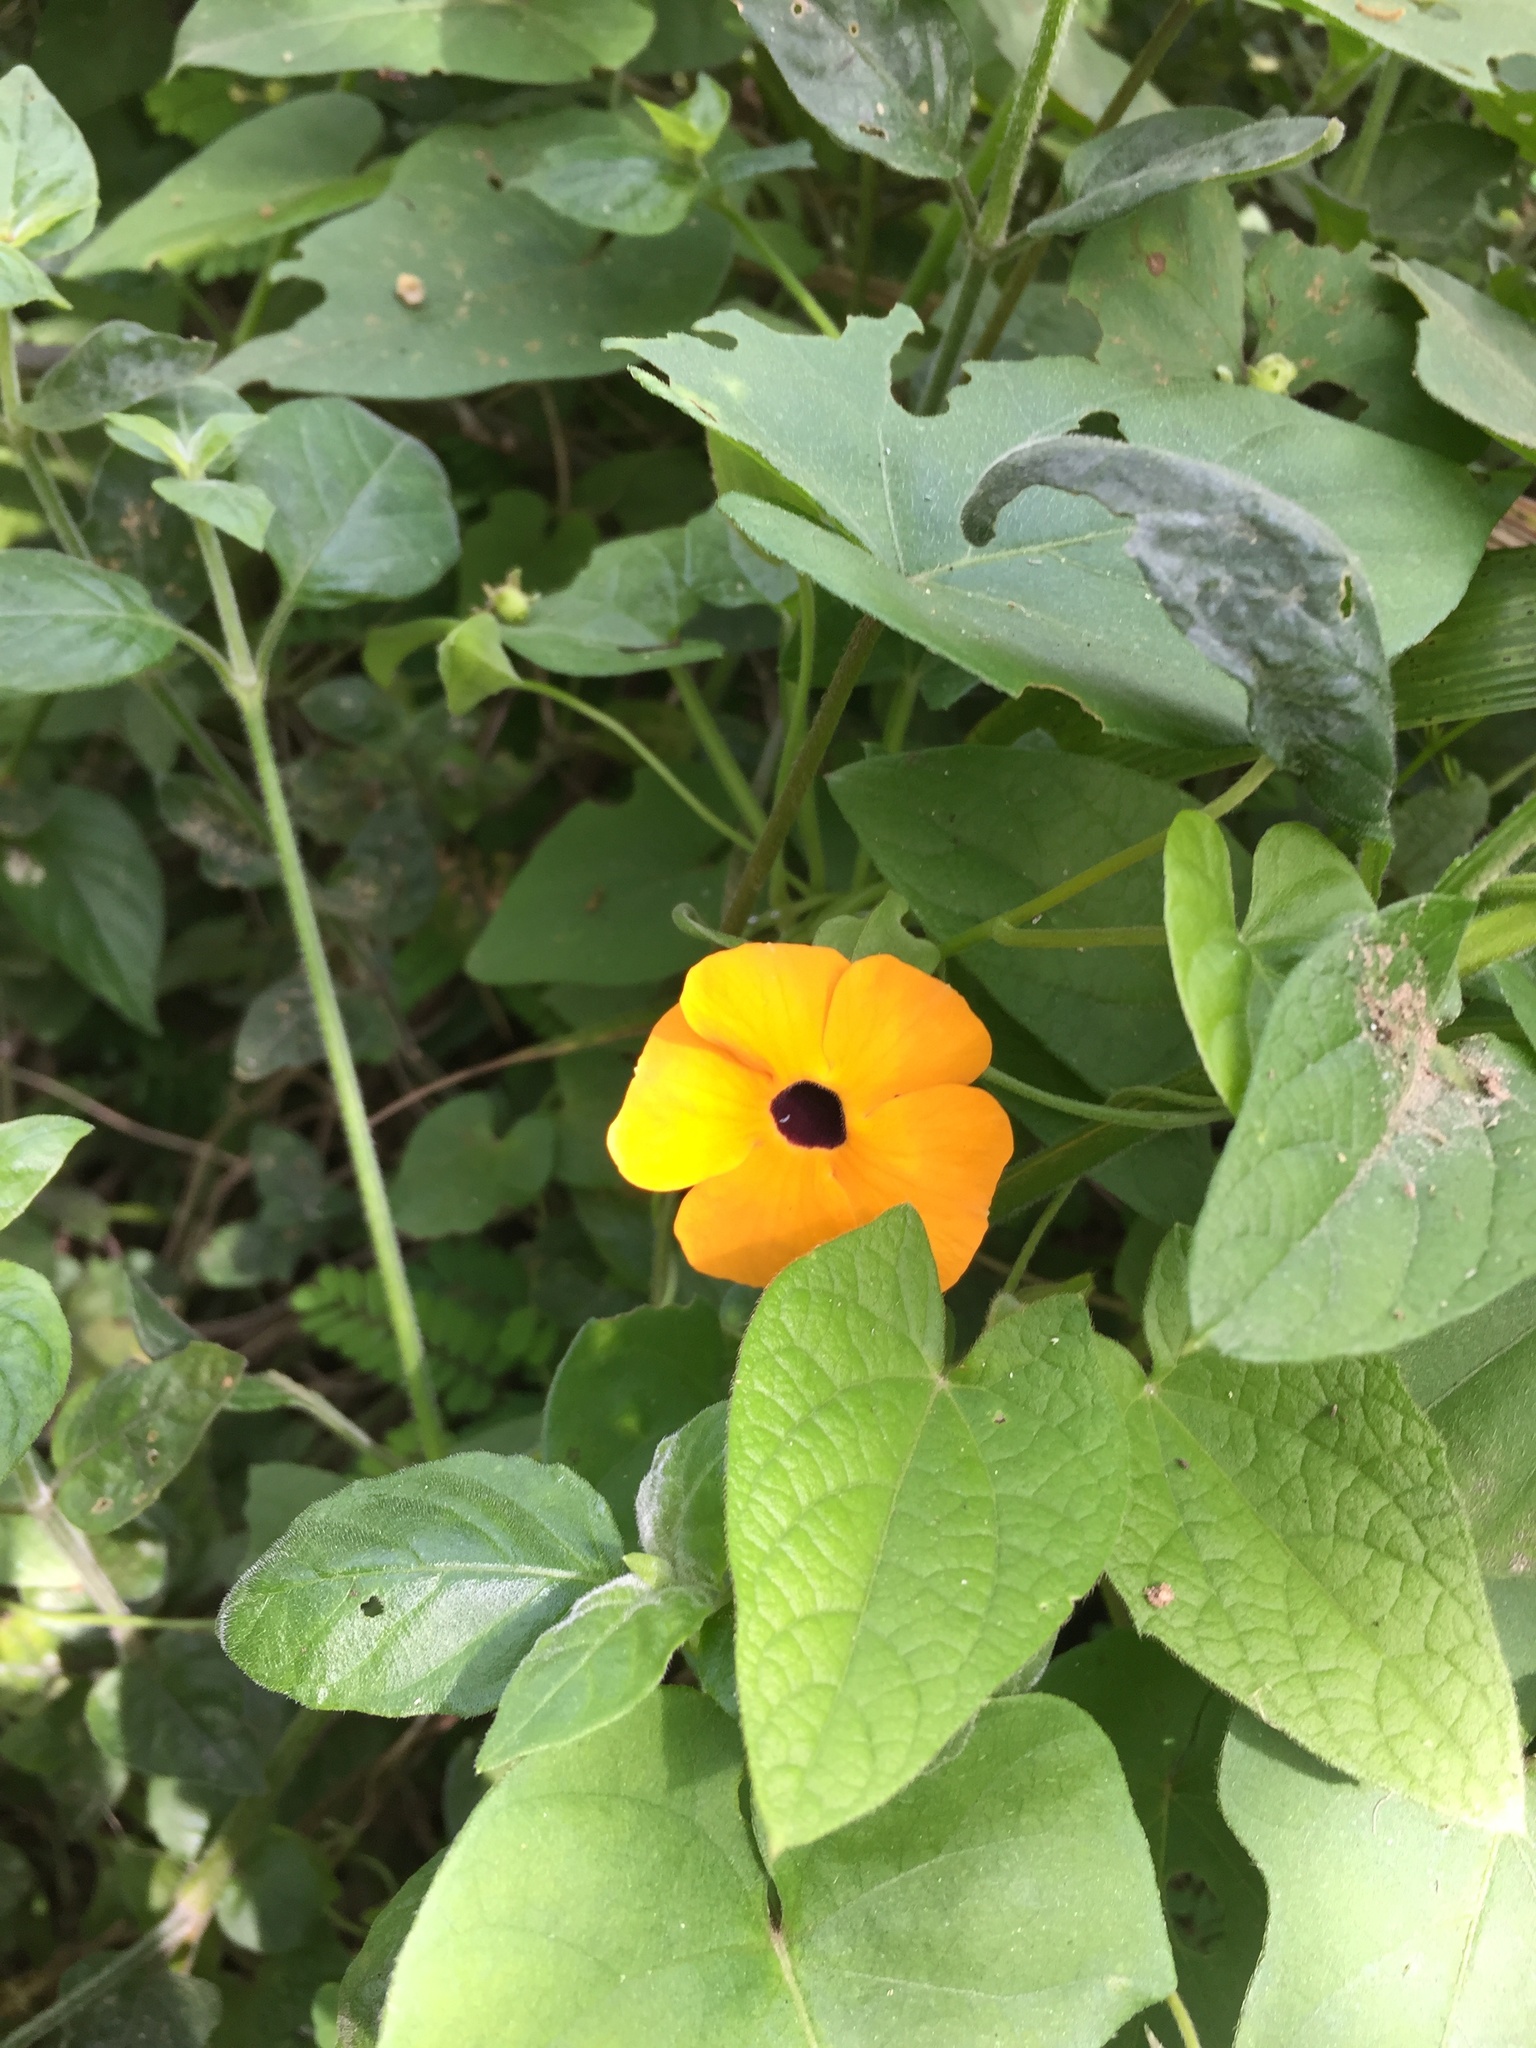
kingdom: Plantae
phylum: Tracheophyta
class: Magnoliopsida
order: Lamiales
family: Acanthaceae
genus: Thunbergia
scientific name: Thunbergia alata
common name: Blackeyed susan vine
